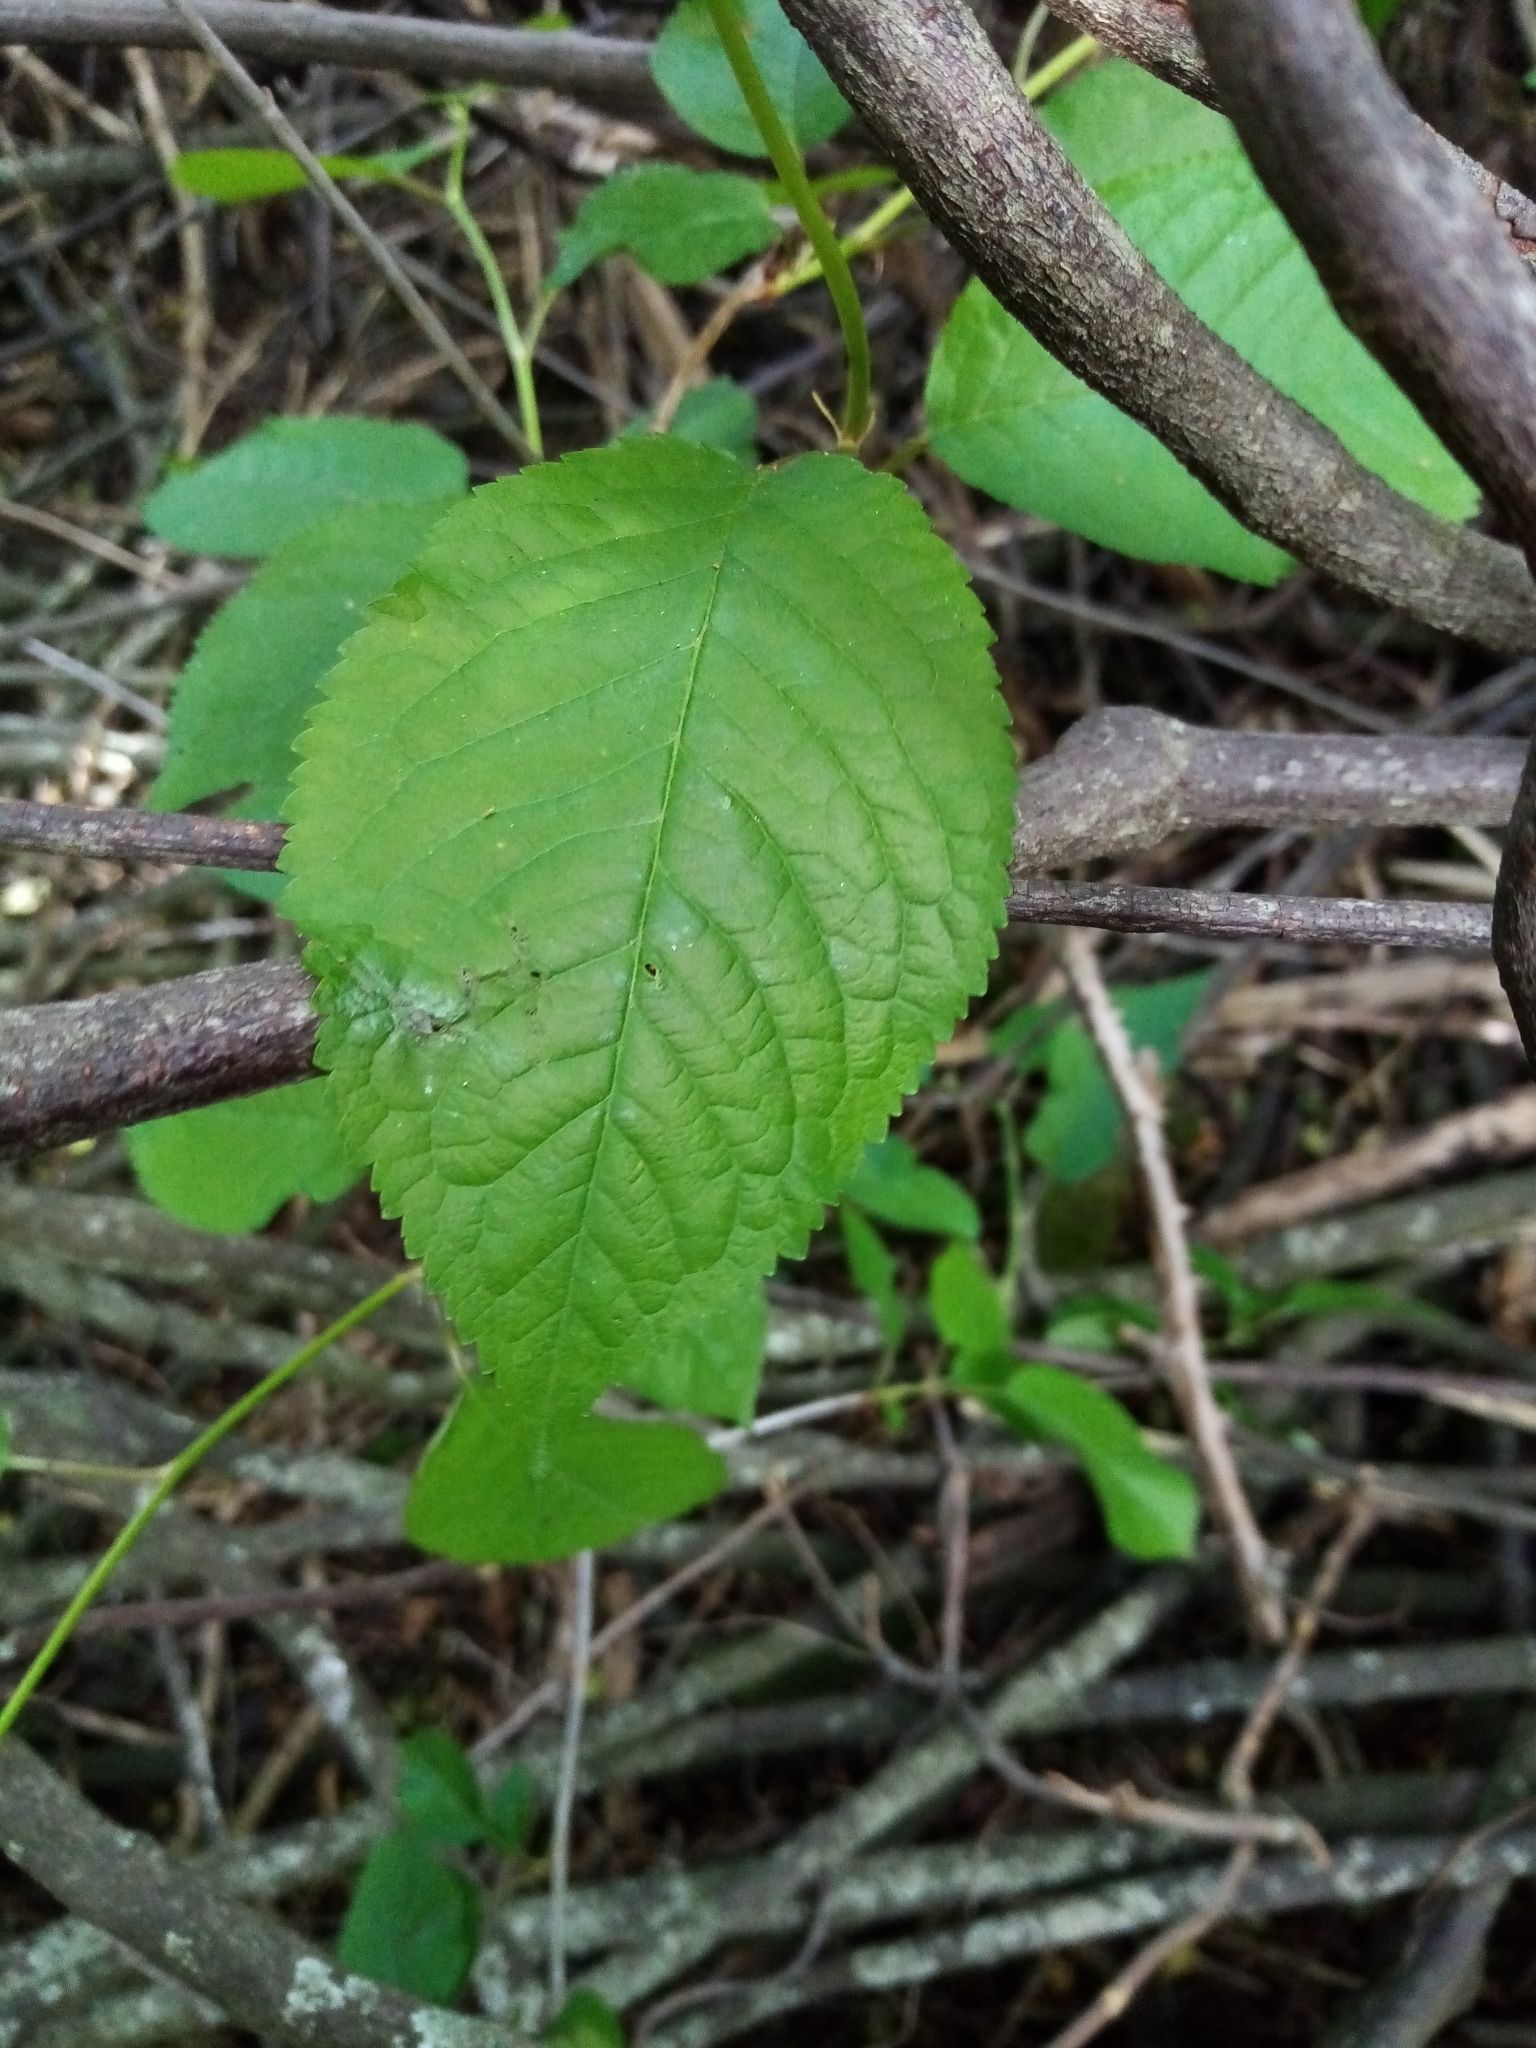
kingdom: Plantae
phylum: Tracheophyta
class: Magnoliopsida
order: Rosales
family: Rosaceae
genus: Prunus
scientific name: Prunus avium
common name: Sweet cherry
